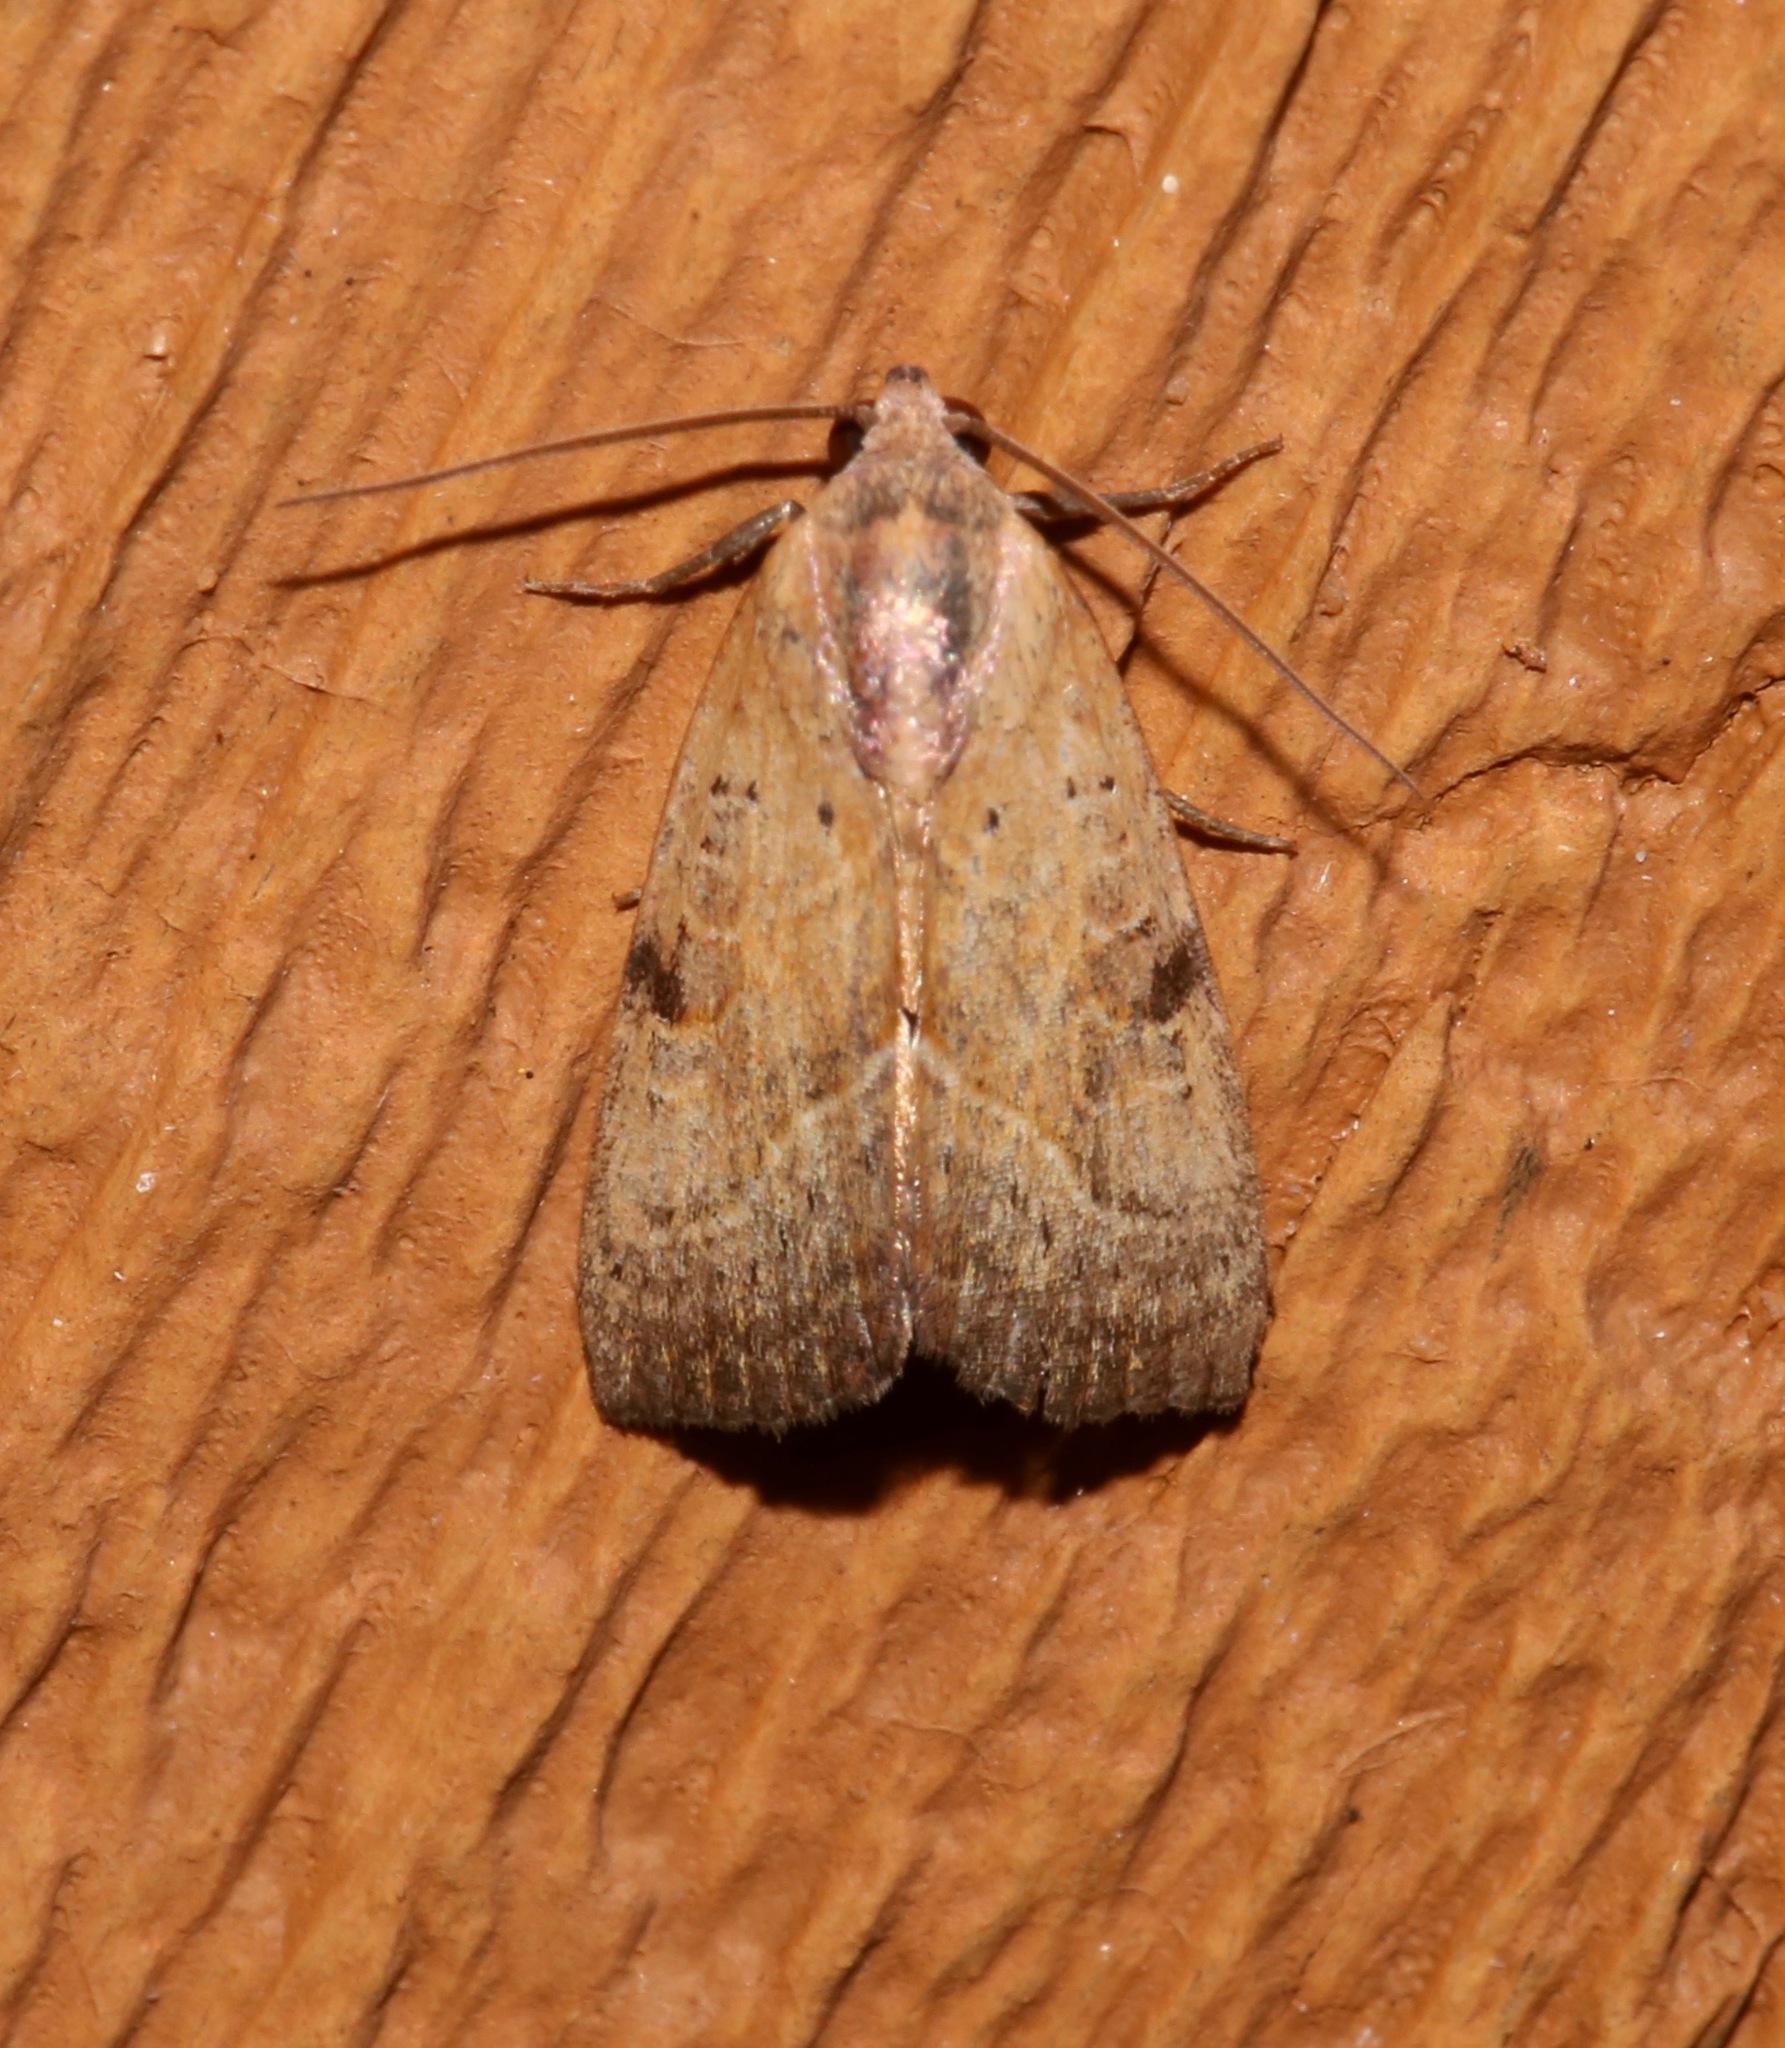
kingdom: Animalia
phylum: Arthropoda
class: Insecta
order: Lepidoptera
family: Noctuidae
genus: Galgula
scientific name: Galgula partita
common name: Wedgeling
